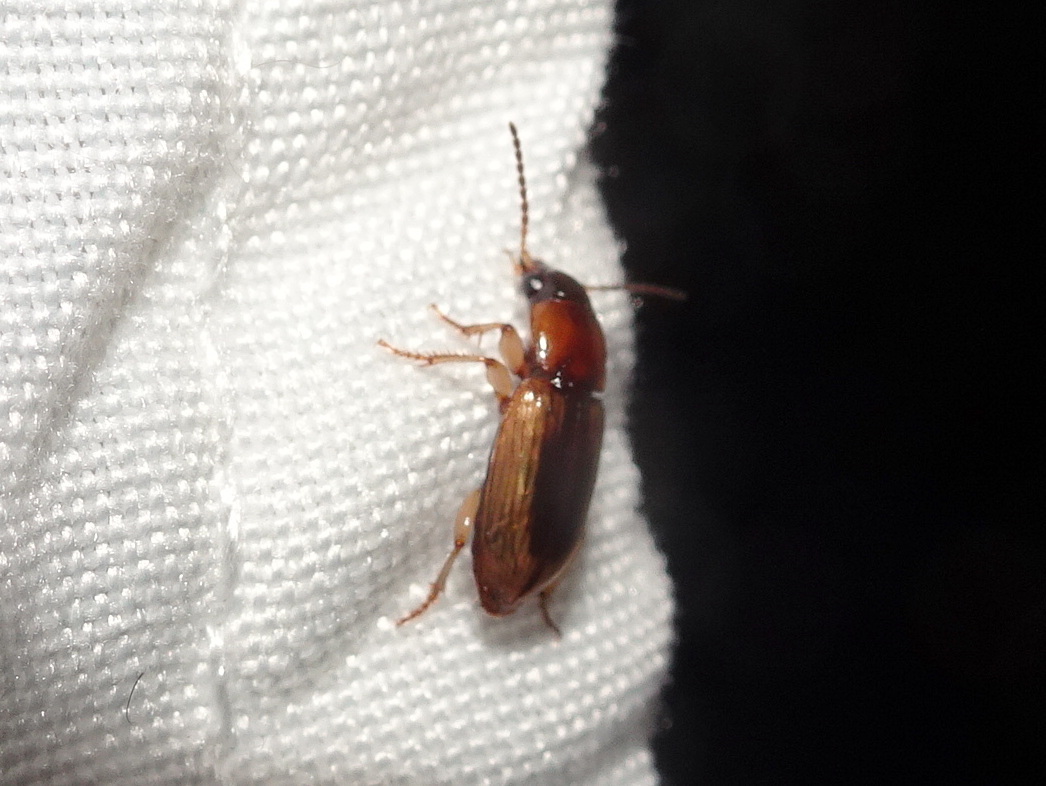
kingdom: Animalia
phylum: Arthropoda
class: Insecta
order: Coleoptera
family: Carabidae
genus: Stenolophus
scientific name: Stenolophus lecontei
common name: Leconte's seedcorn beetle
